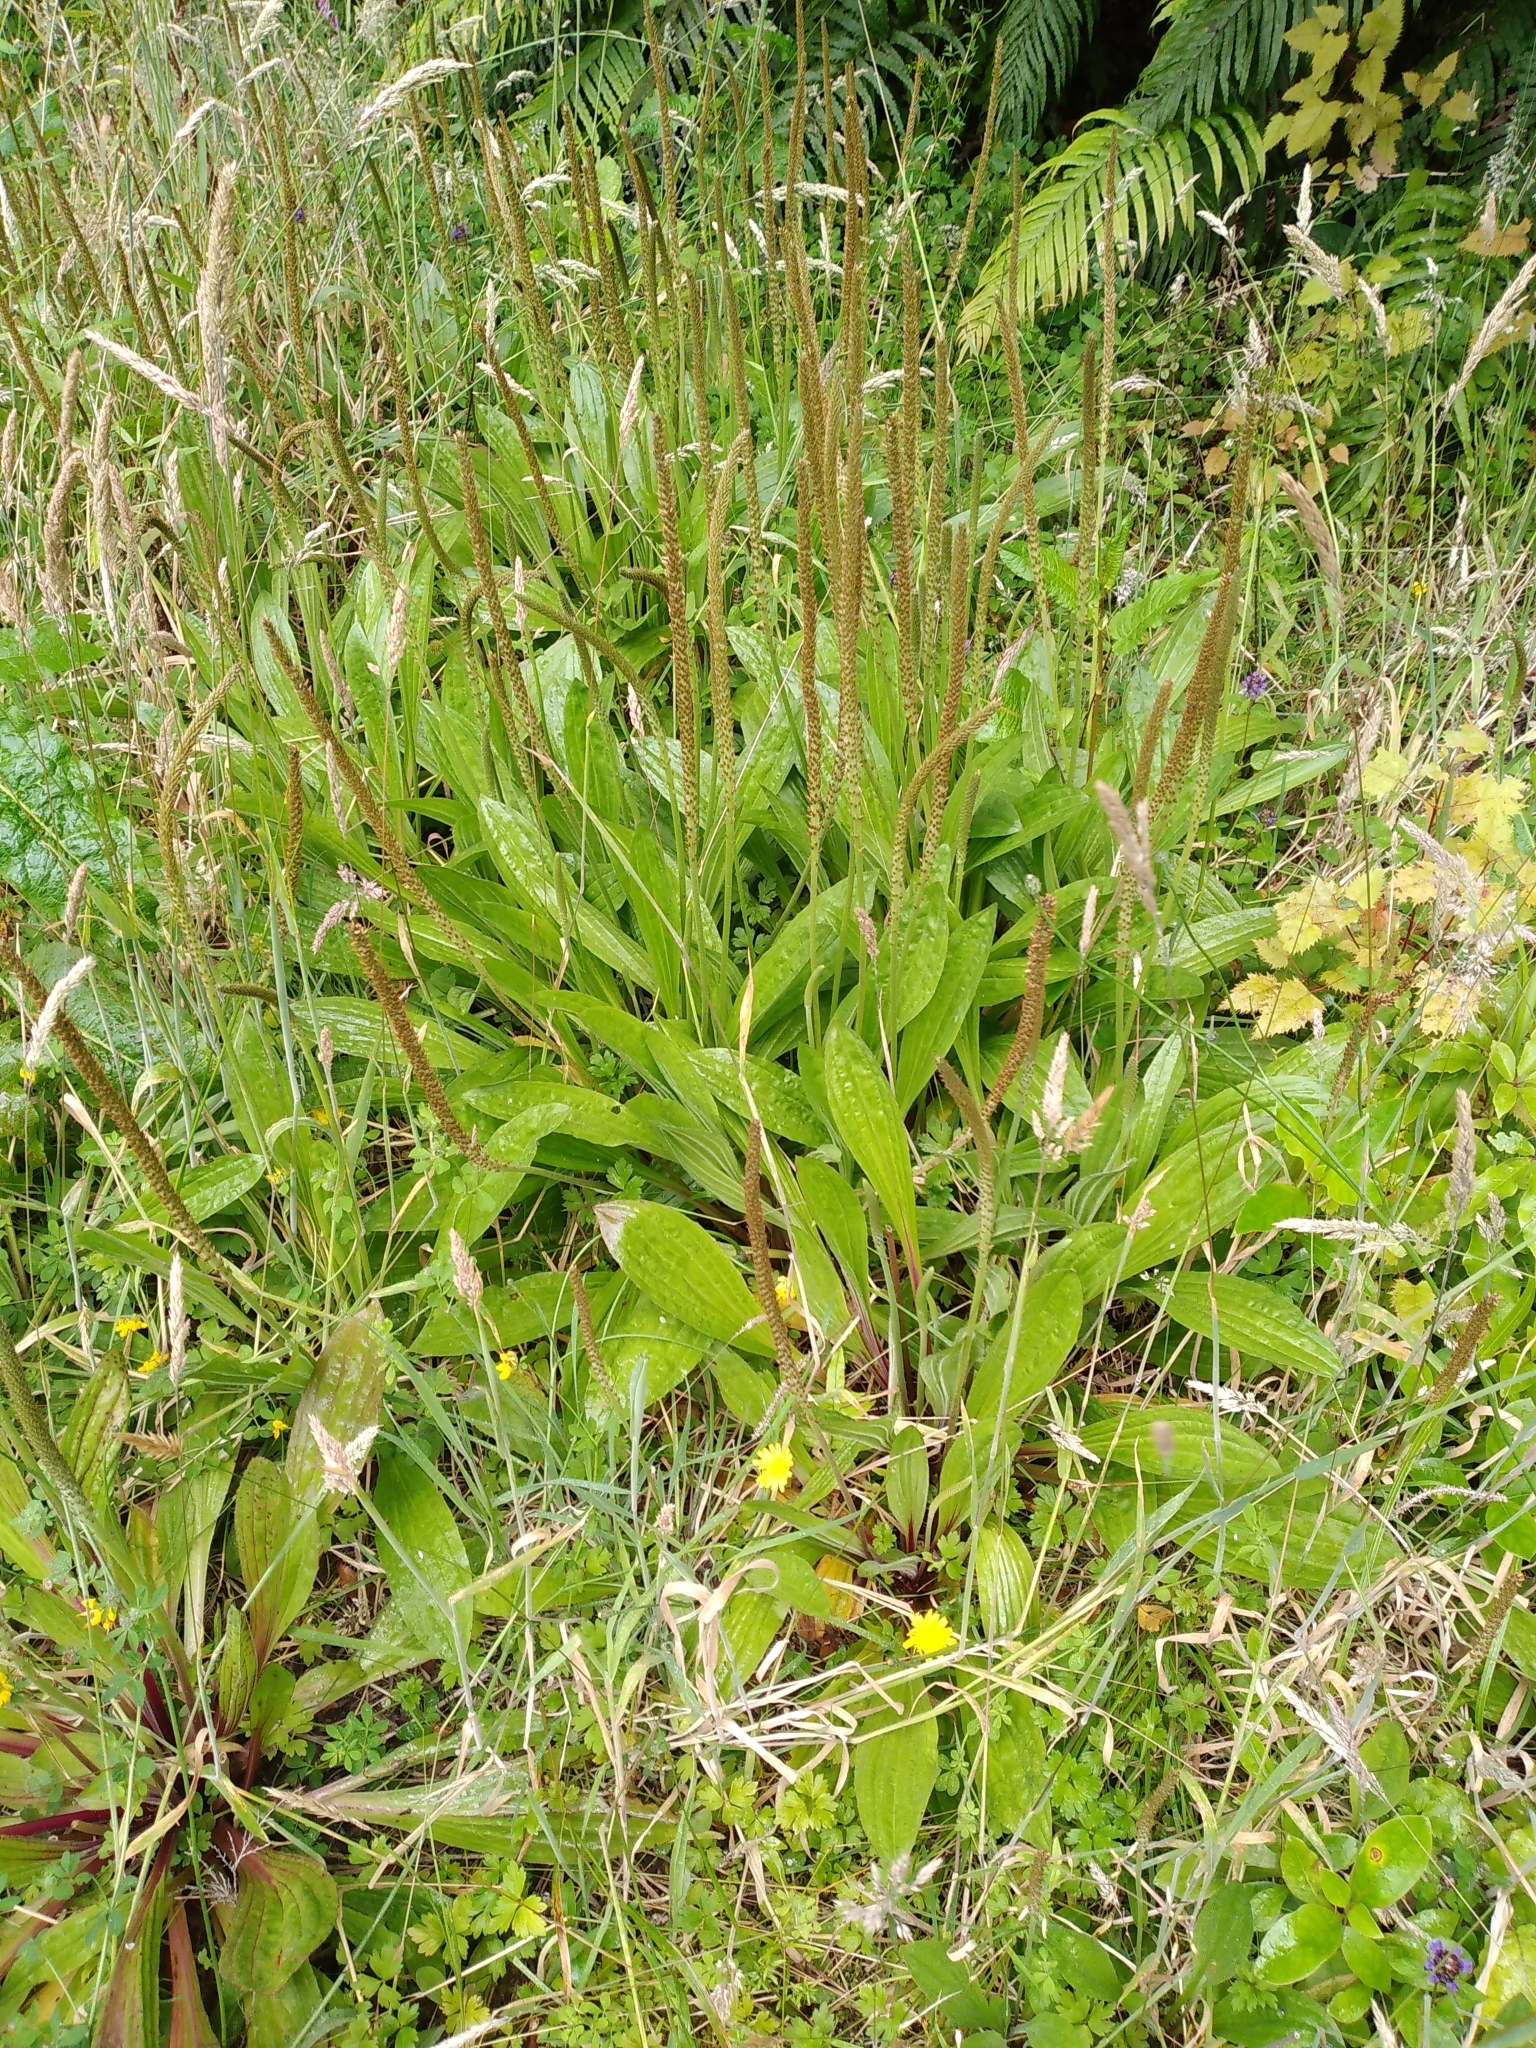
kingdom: Plantae
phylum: Tracheophyta
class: Magnoliopsida
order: Lamiales
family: Plantaginaceae
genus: Plantago
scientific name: Plantago australis
